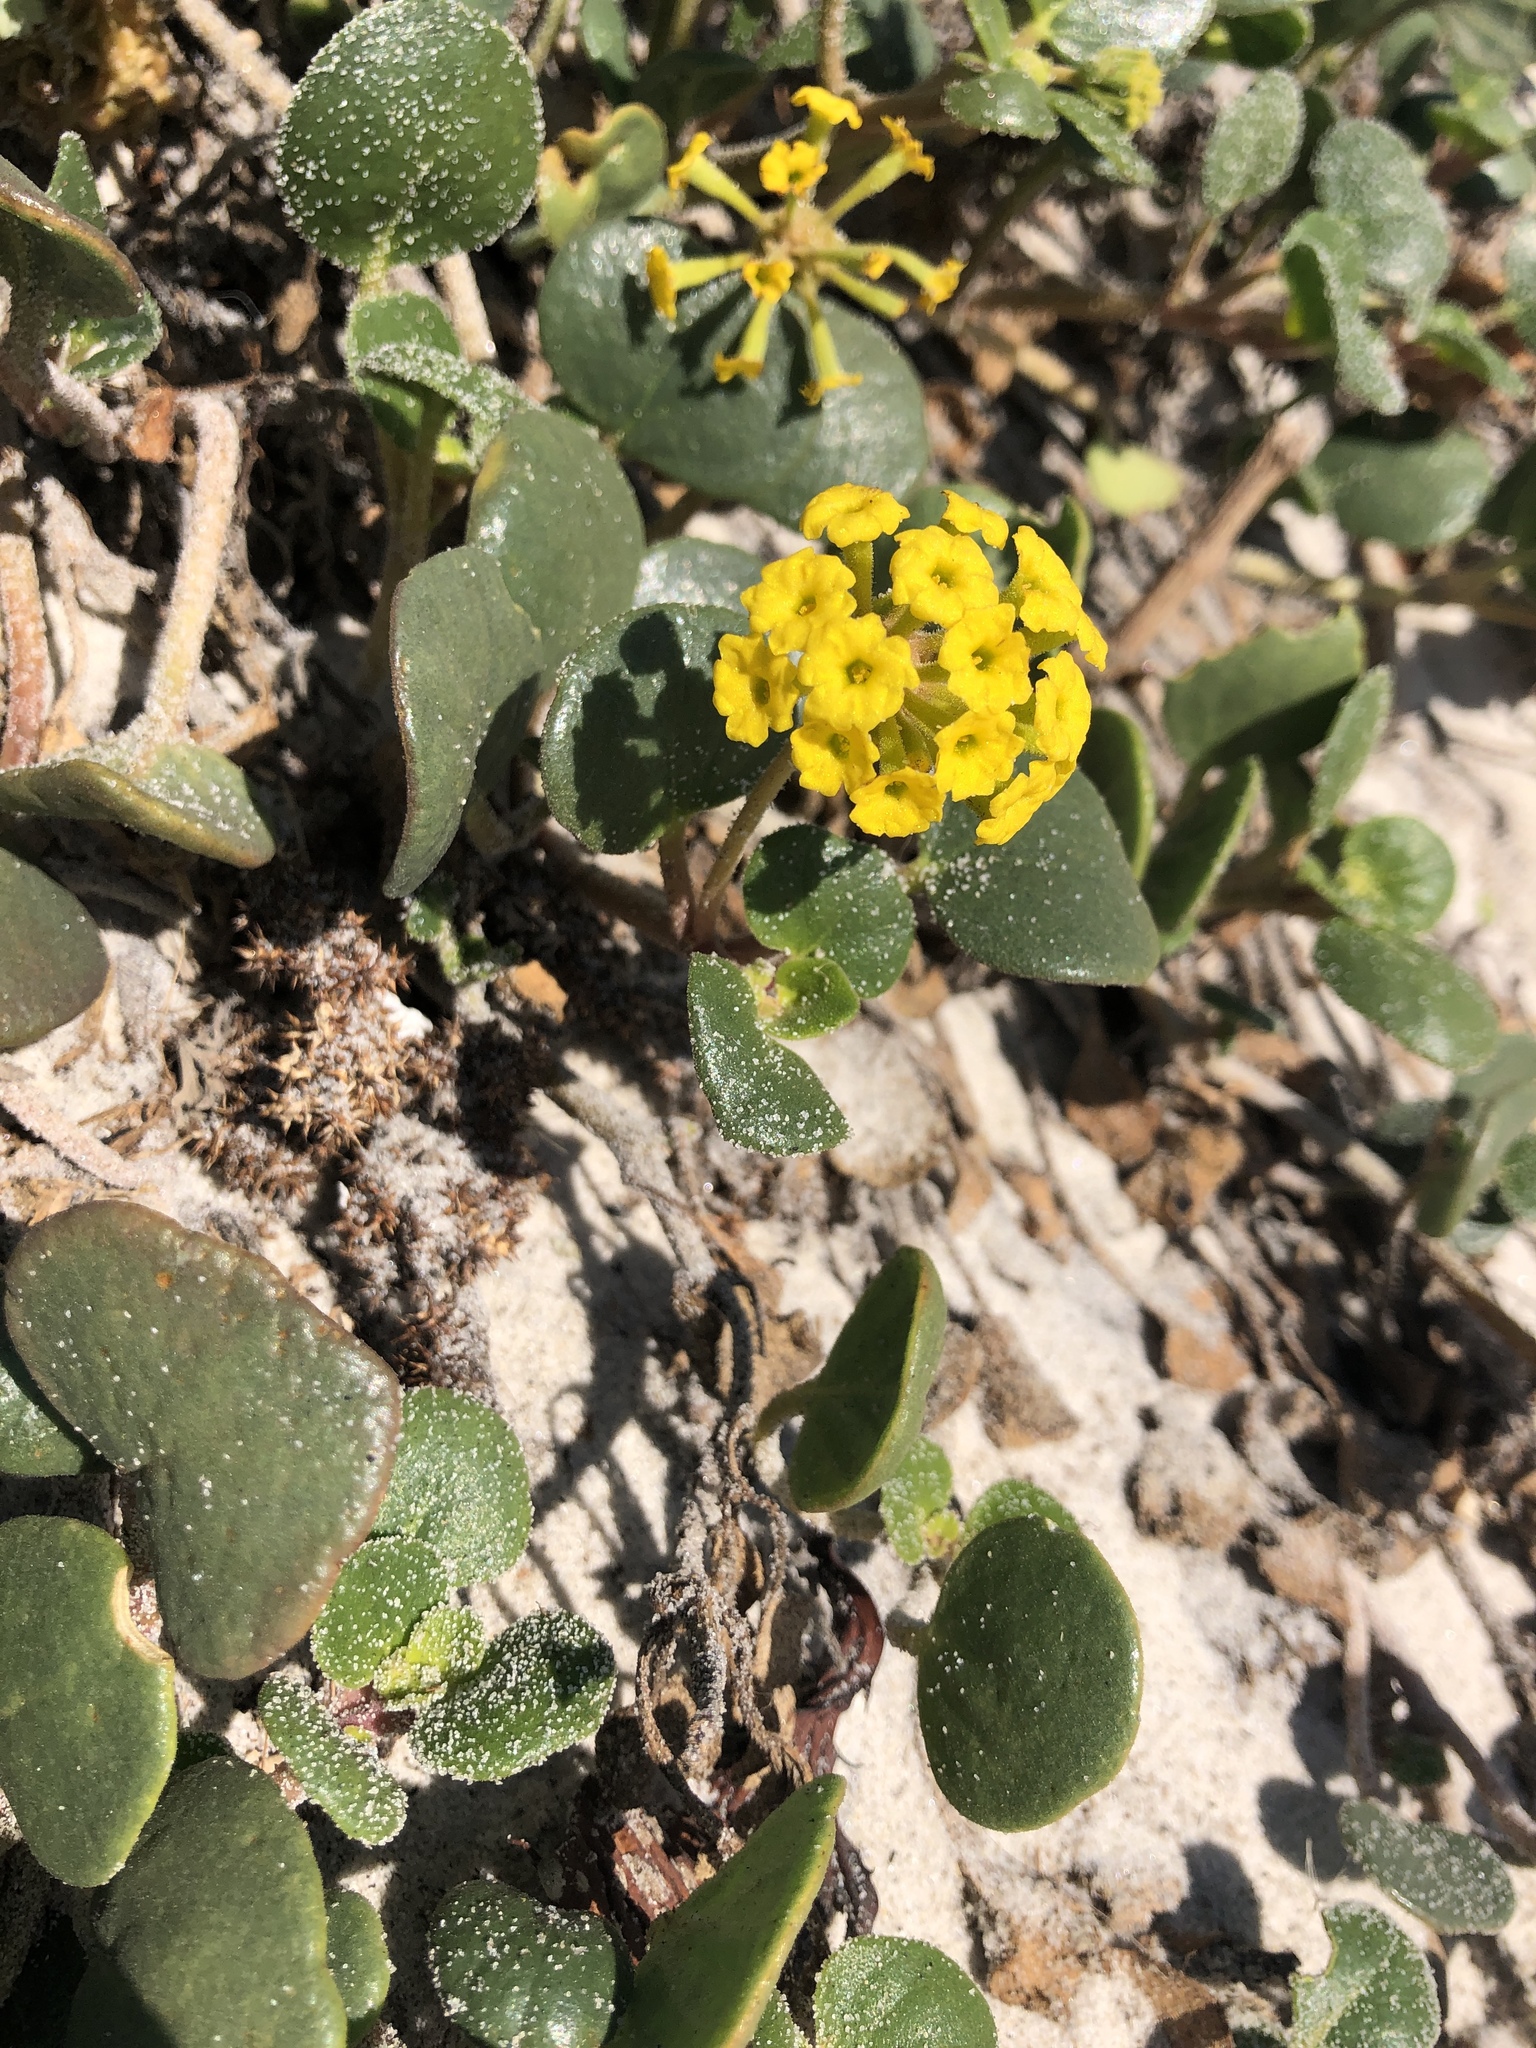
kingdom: Plantae
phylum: Tracheophyta
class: Magnoliopsida
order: Caryophyllales
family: Nyctaginaceae
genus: Abronia
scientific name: Abronia latifolia
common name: Yellow sand-verbena
